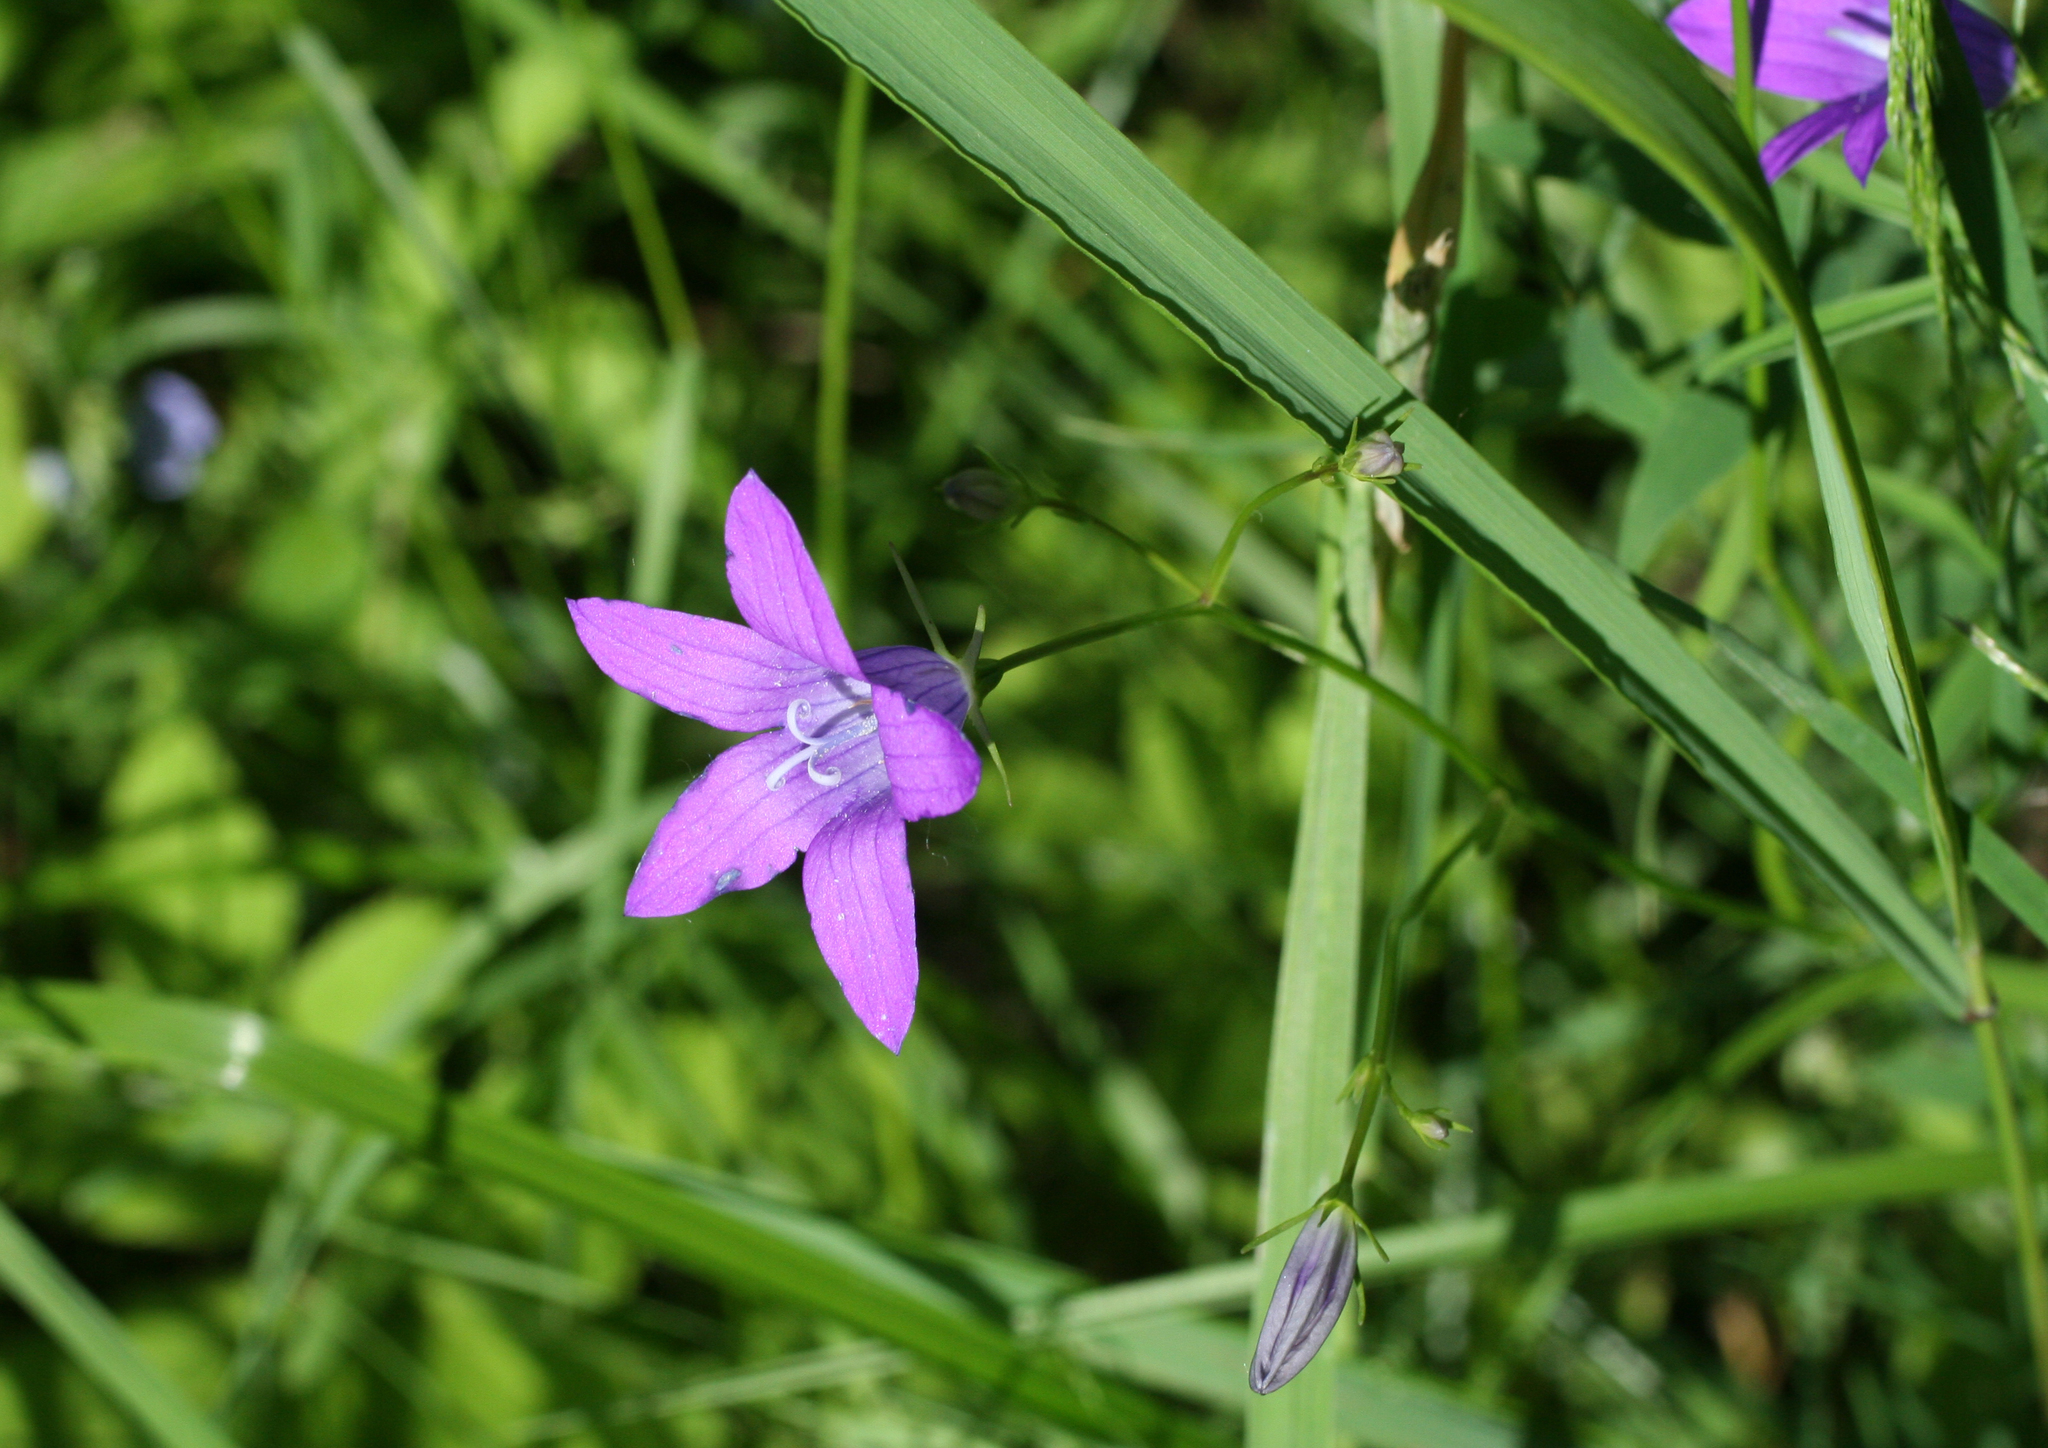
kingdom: Plantae
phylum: Tracheophyta
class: Magnoliopsida
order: Asterales
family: Campanulaceae
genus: Campanula
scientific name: Campanula patula
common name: Spreading bellflower
